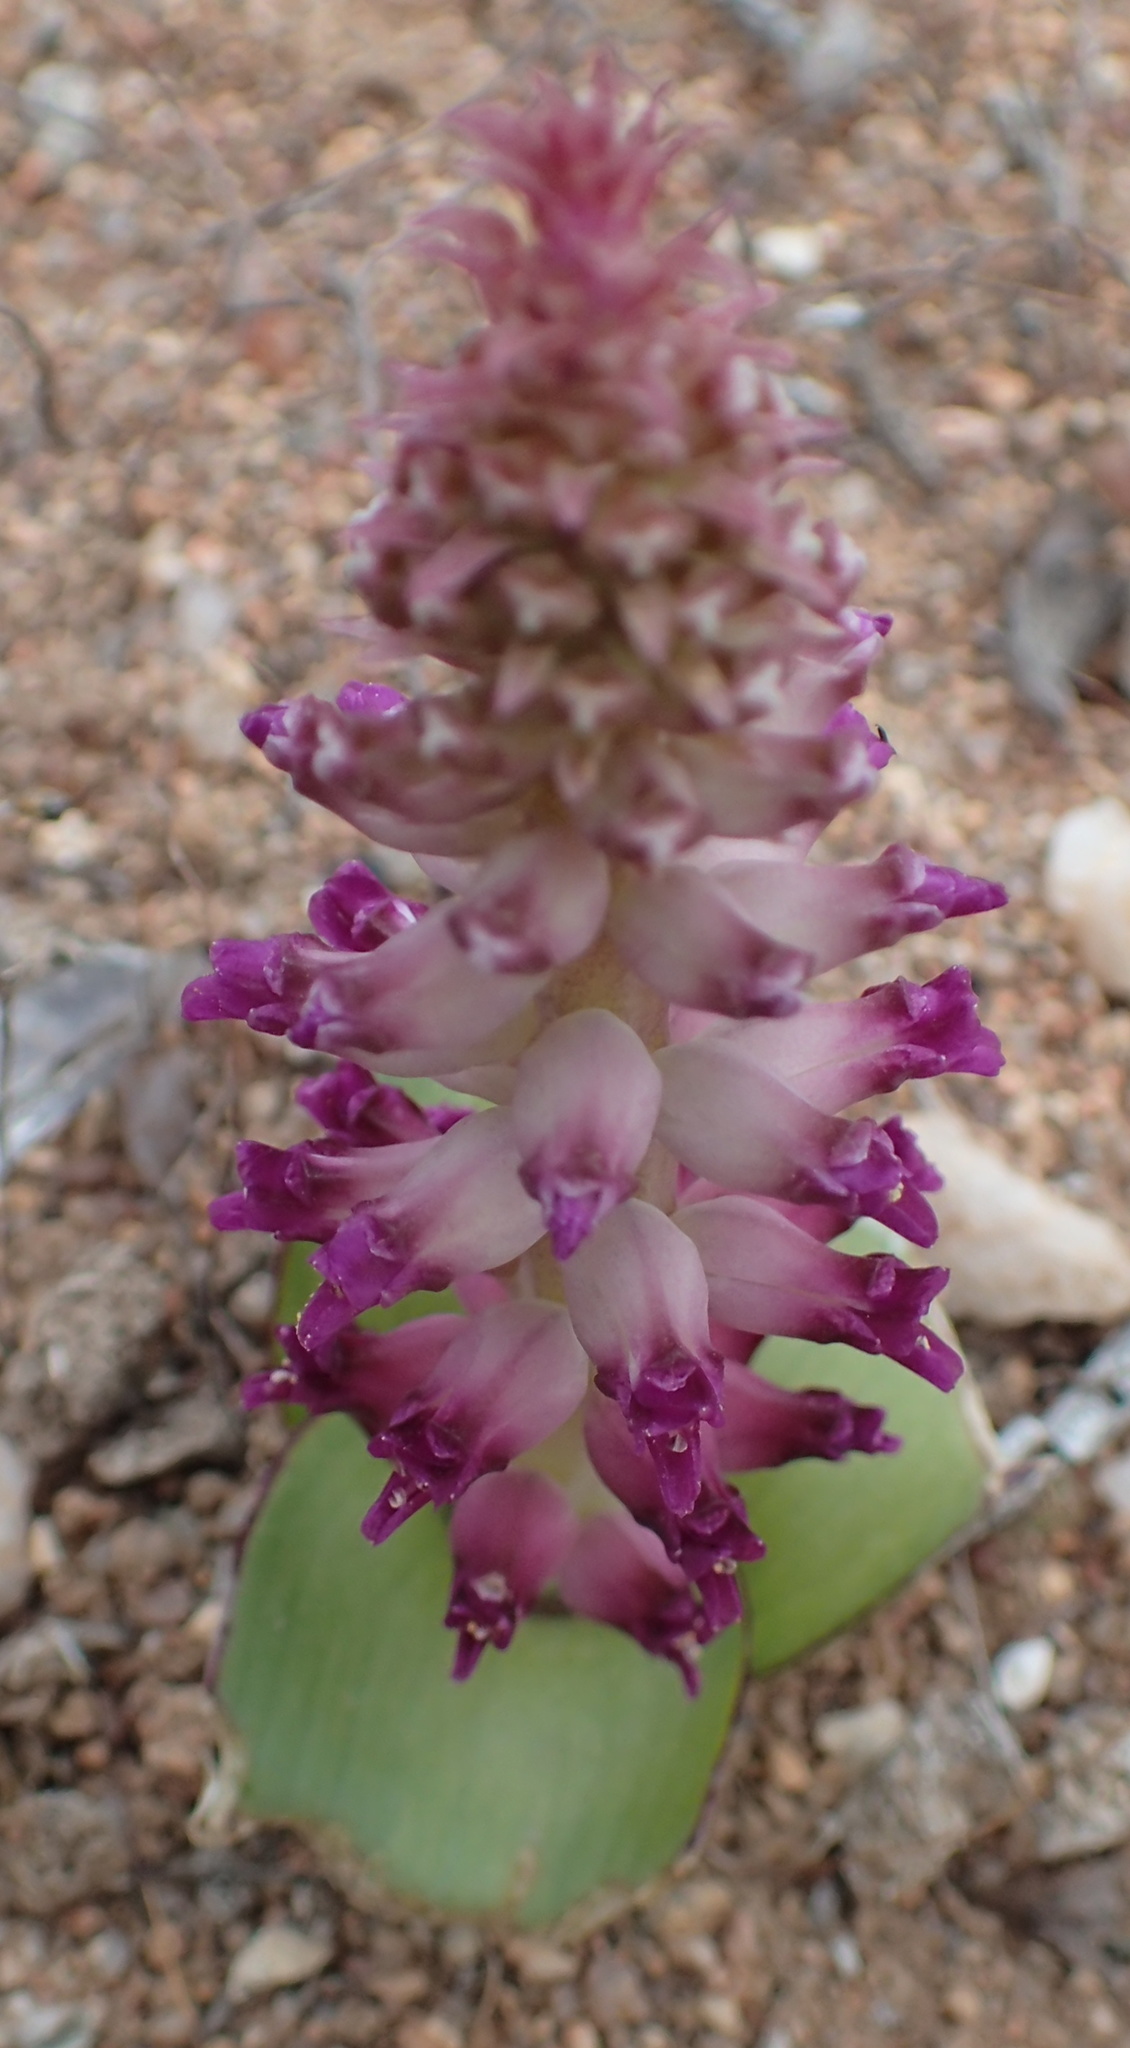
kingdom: Plantae
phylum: Tracheophyta
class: Liliopsida
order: Asparagales
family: Asparagaceae
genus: Lachenalia
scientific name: Lachenalia carnosa
